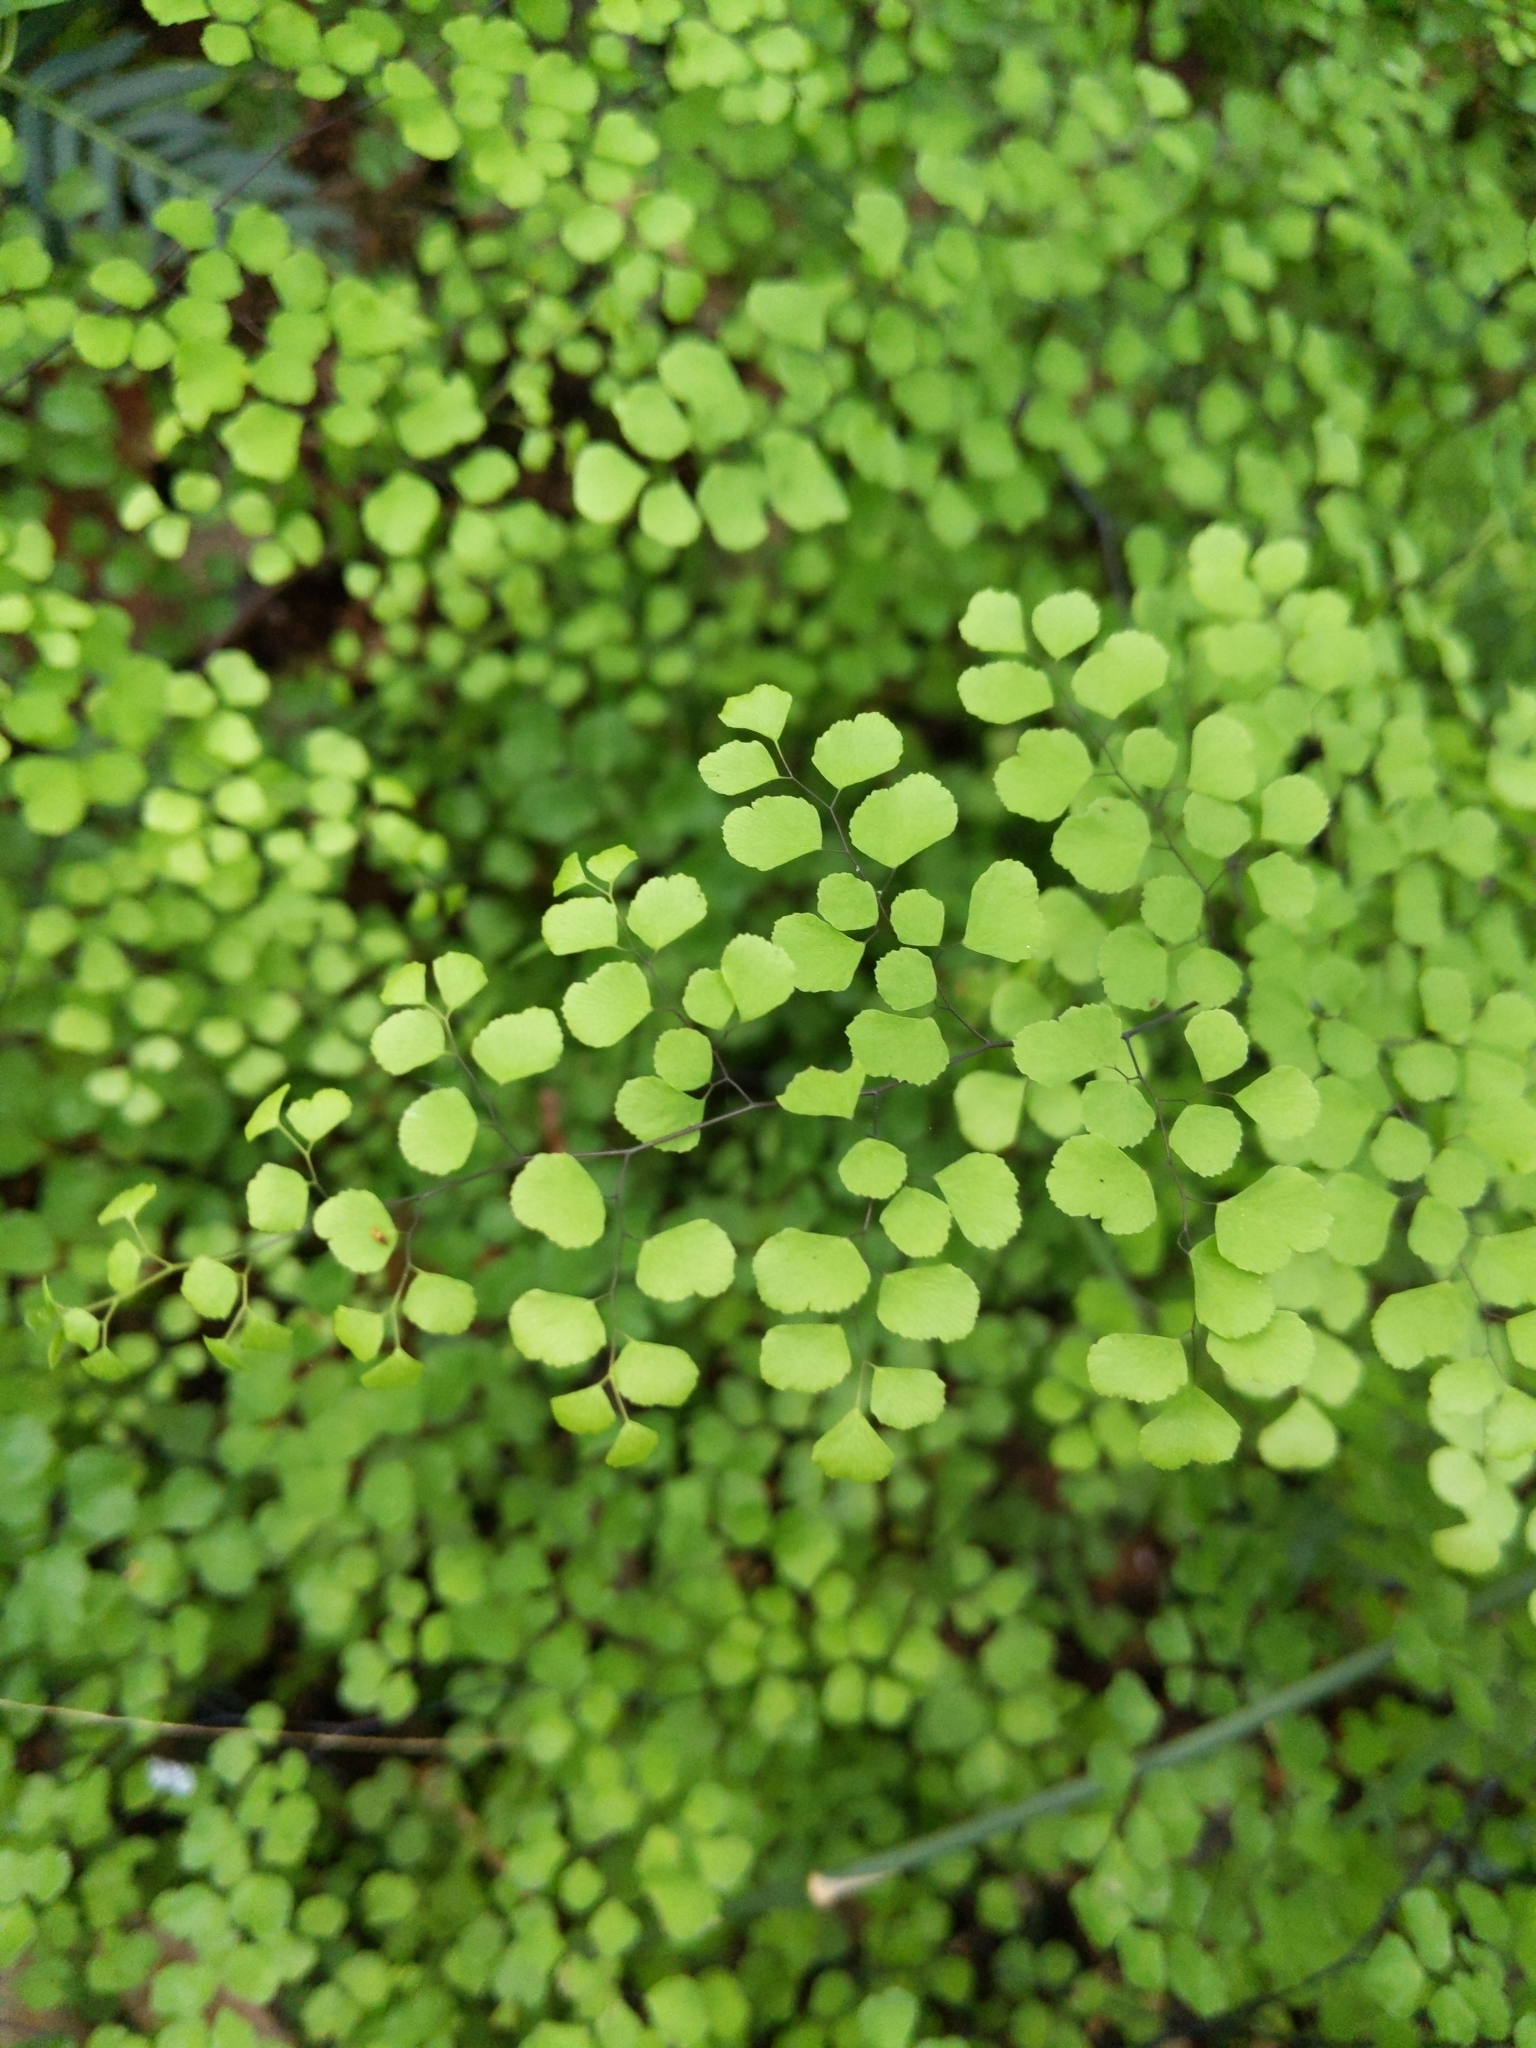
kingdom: Plantae
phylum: Tracheophyta
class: Polypodiopsida
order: Polypodiales
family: Pteridaceae
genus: Adiantum
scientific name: Adiantum aethiopicum
